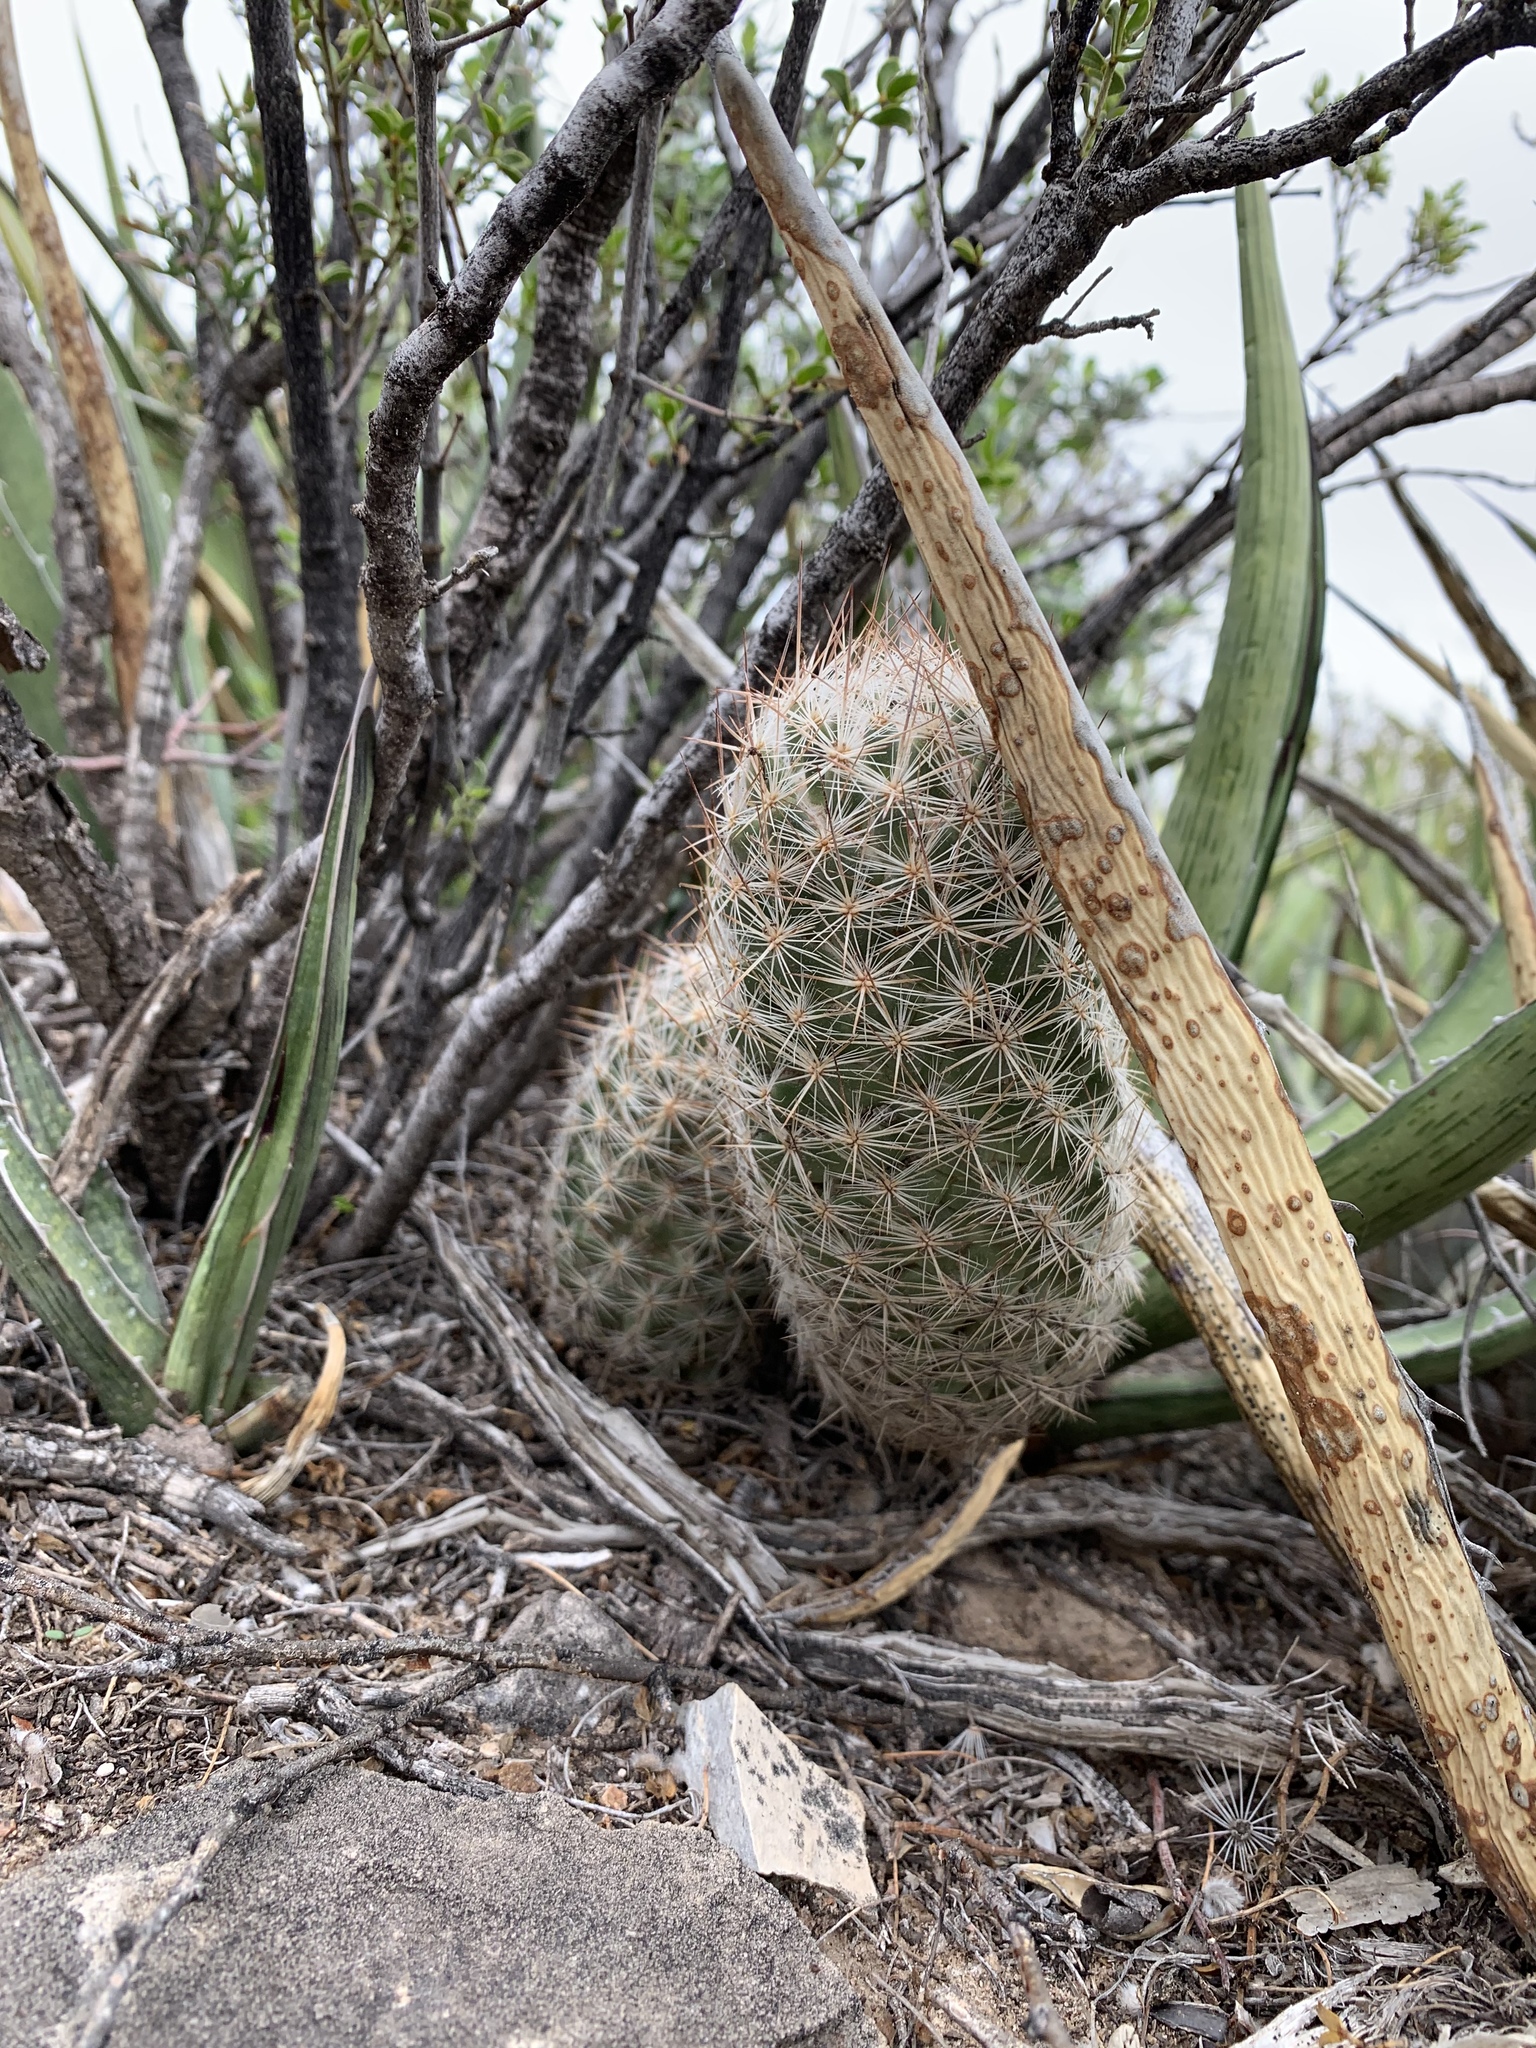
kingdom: Plantae
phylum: Tracheophyta
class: Magnoliopsida
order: Caryophyllales
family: Cactaceae
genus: Pelecyphora
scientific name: Pelecyphora tuberculosa
